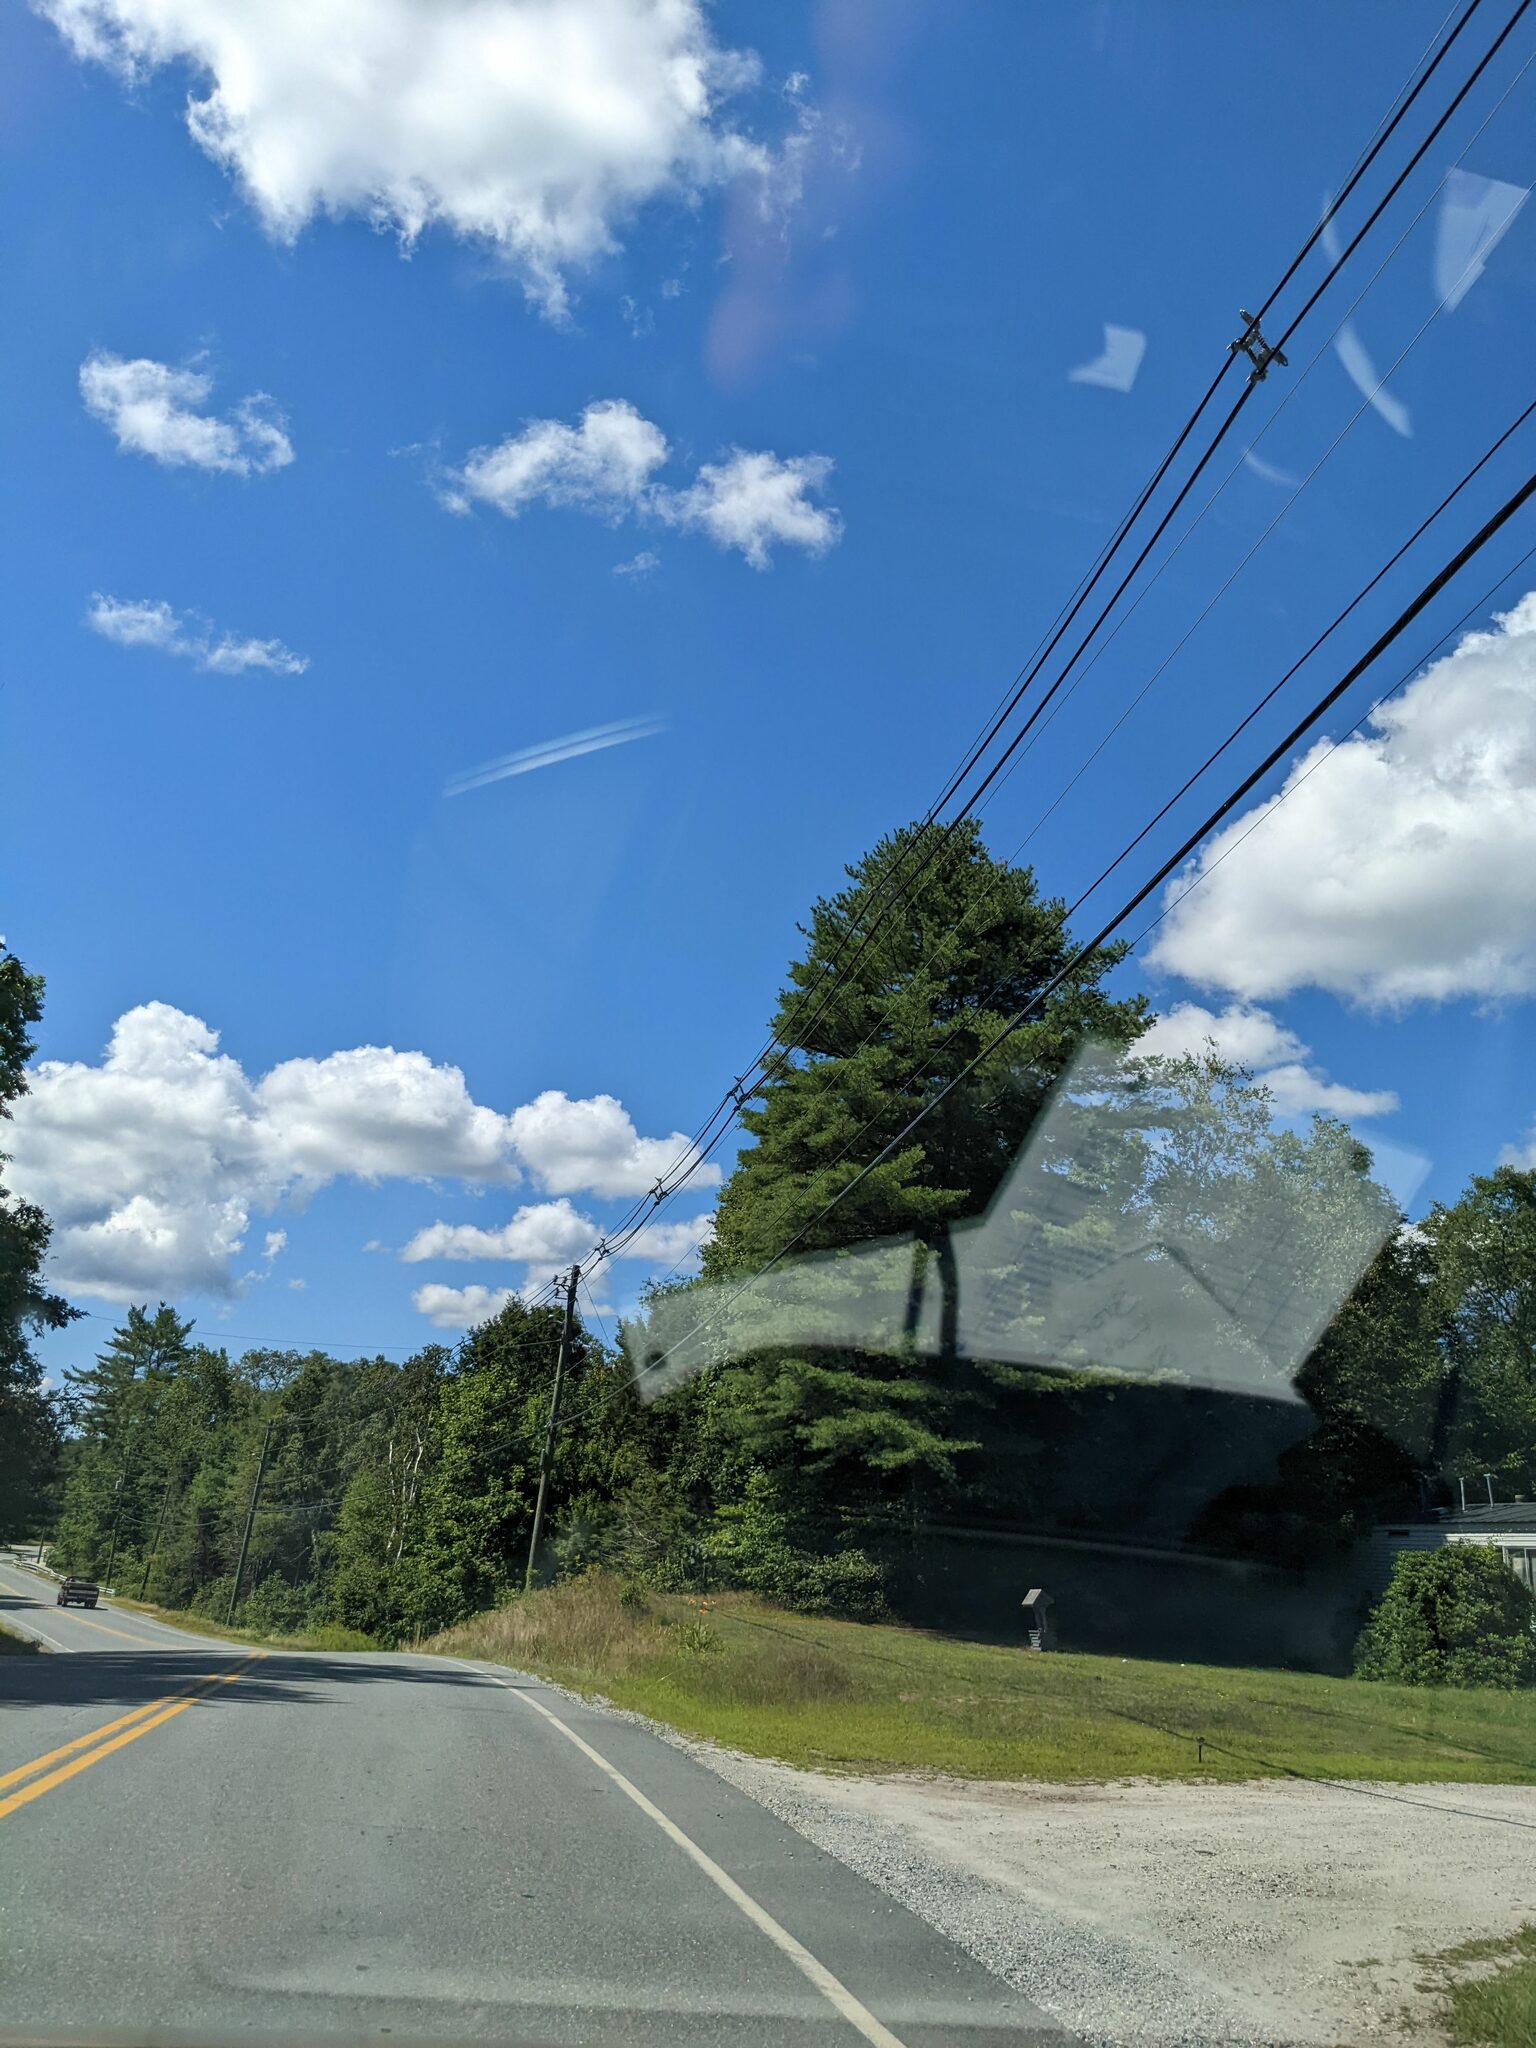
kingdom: Plantae
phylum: Tracheophyta
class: Pinopsida
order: Pinales
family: Pinaceae
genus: Pinus
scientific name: Pinus strobus
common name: Weymouth pine
